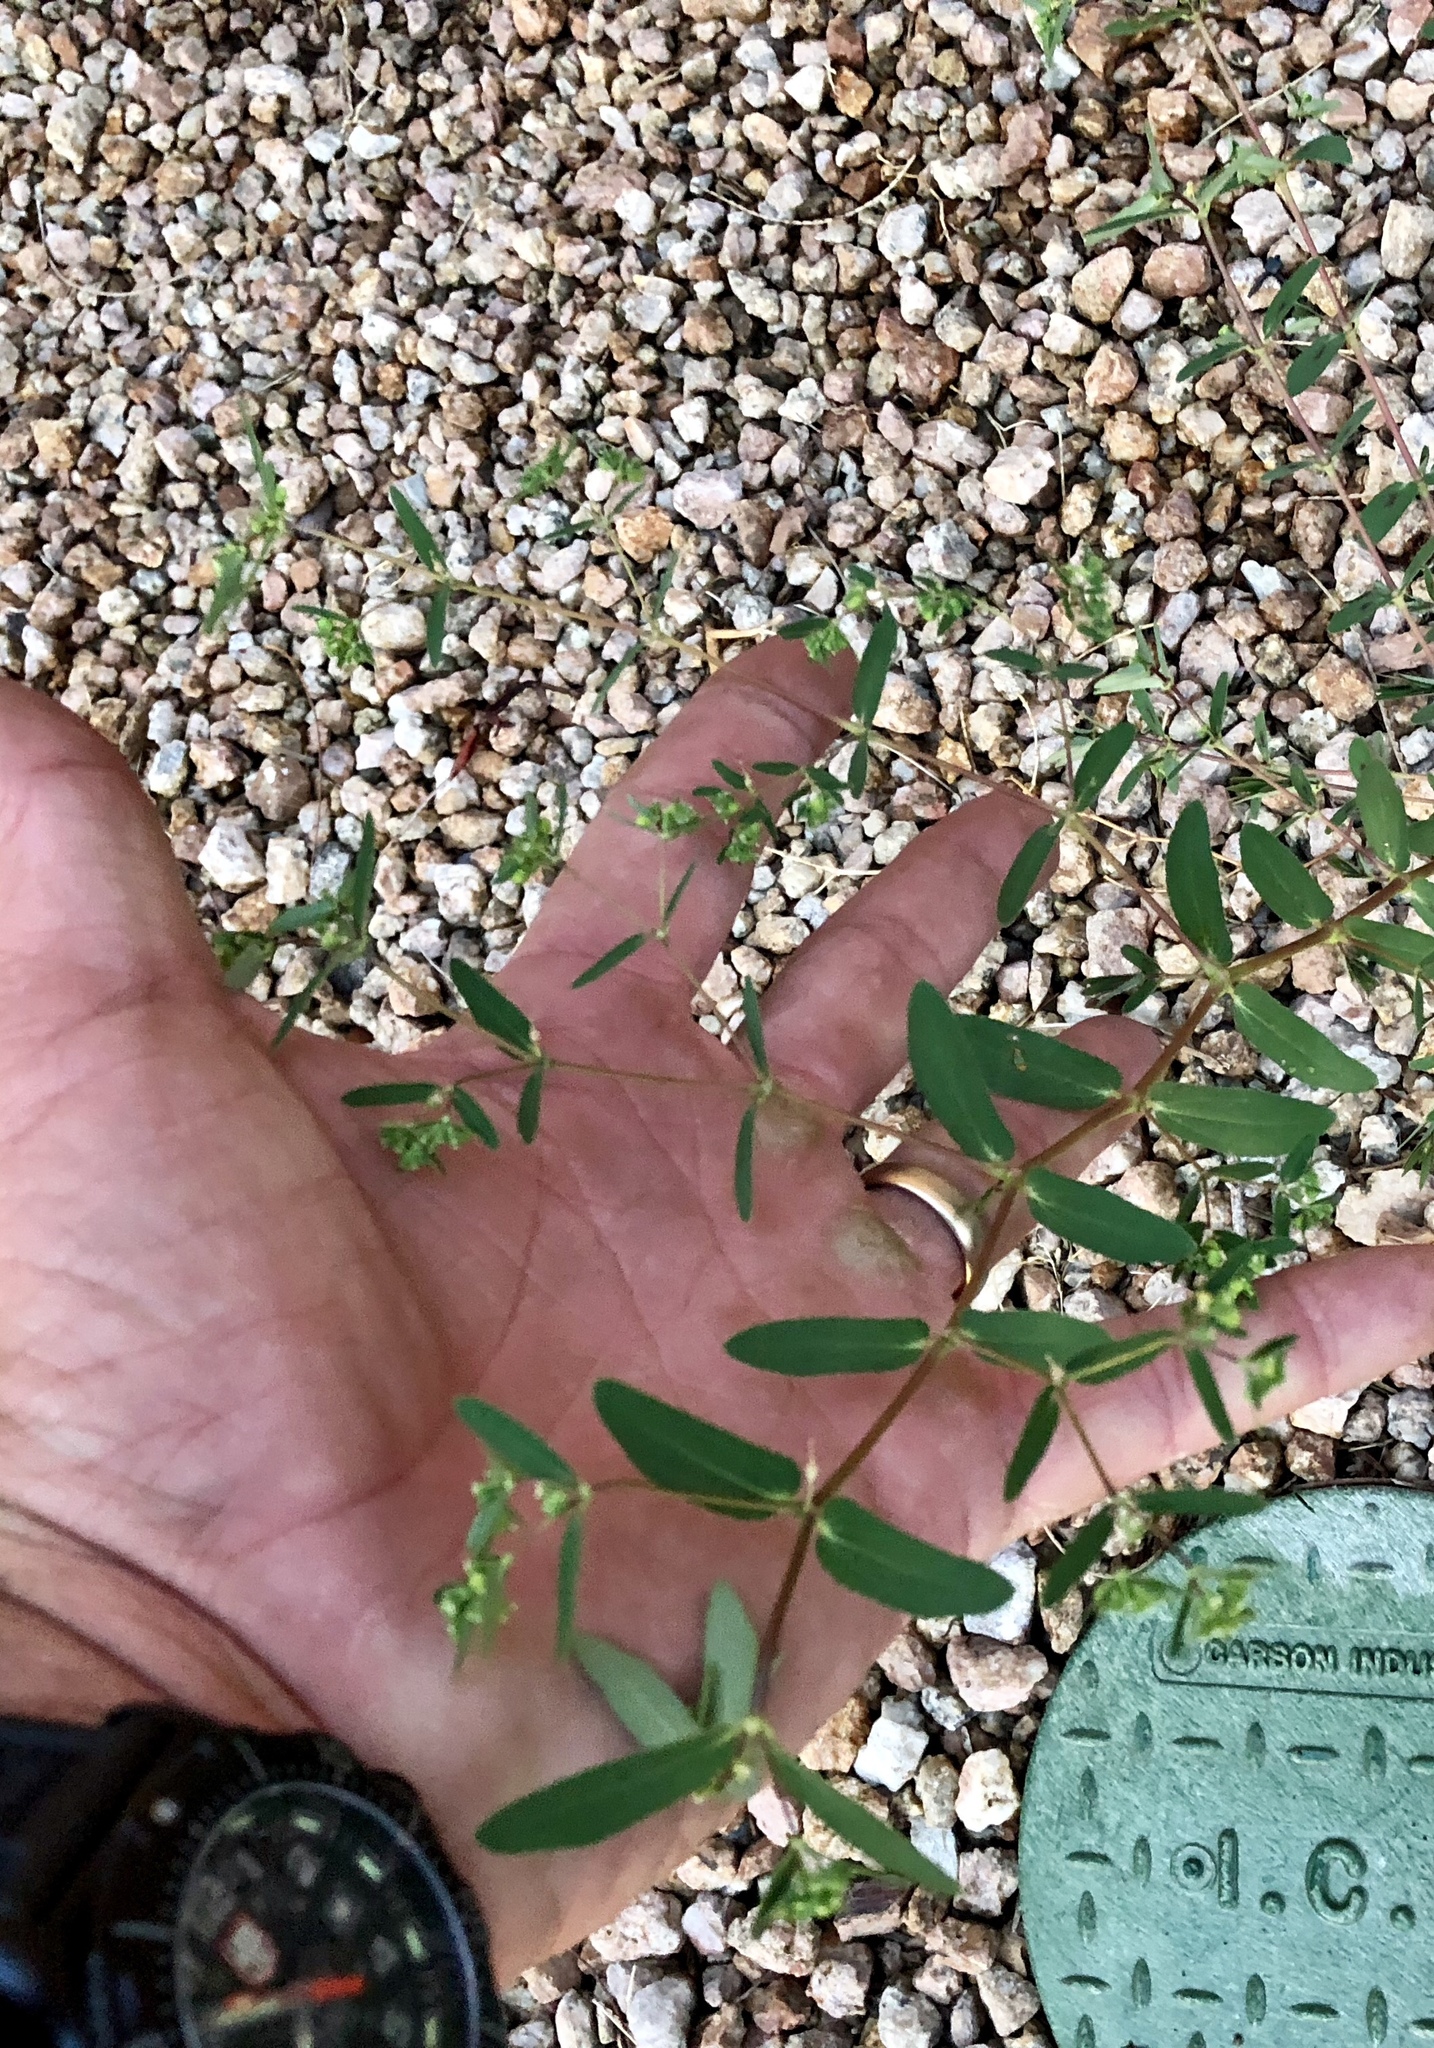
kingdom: Plantae
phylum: Tracheophyta
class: Magnoliopsida
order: Malpighiales
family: Euphorbiaceae
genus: Euphorbia
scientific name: Euphorbia hyssopifolia
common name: Hyssopleaf sandmat
